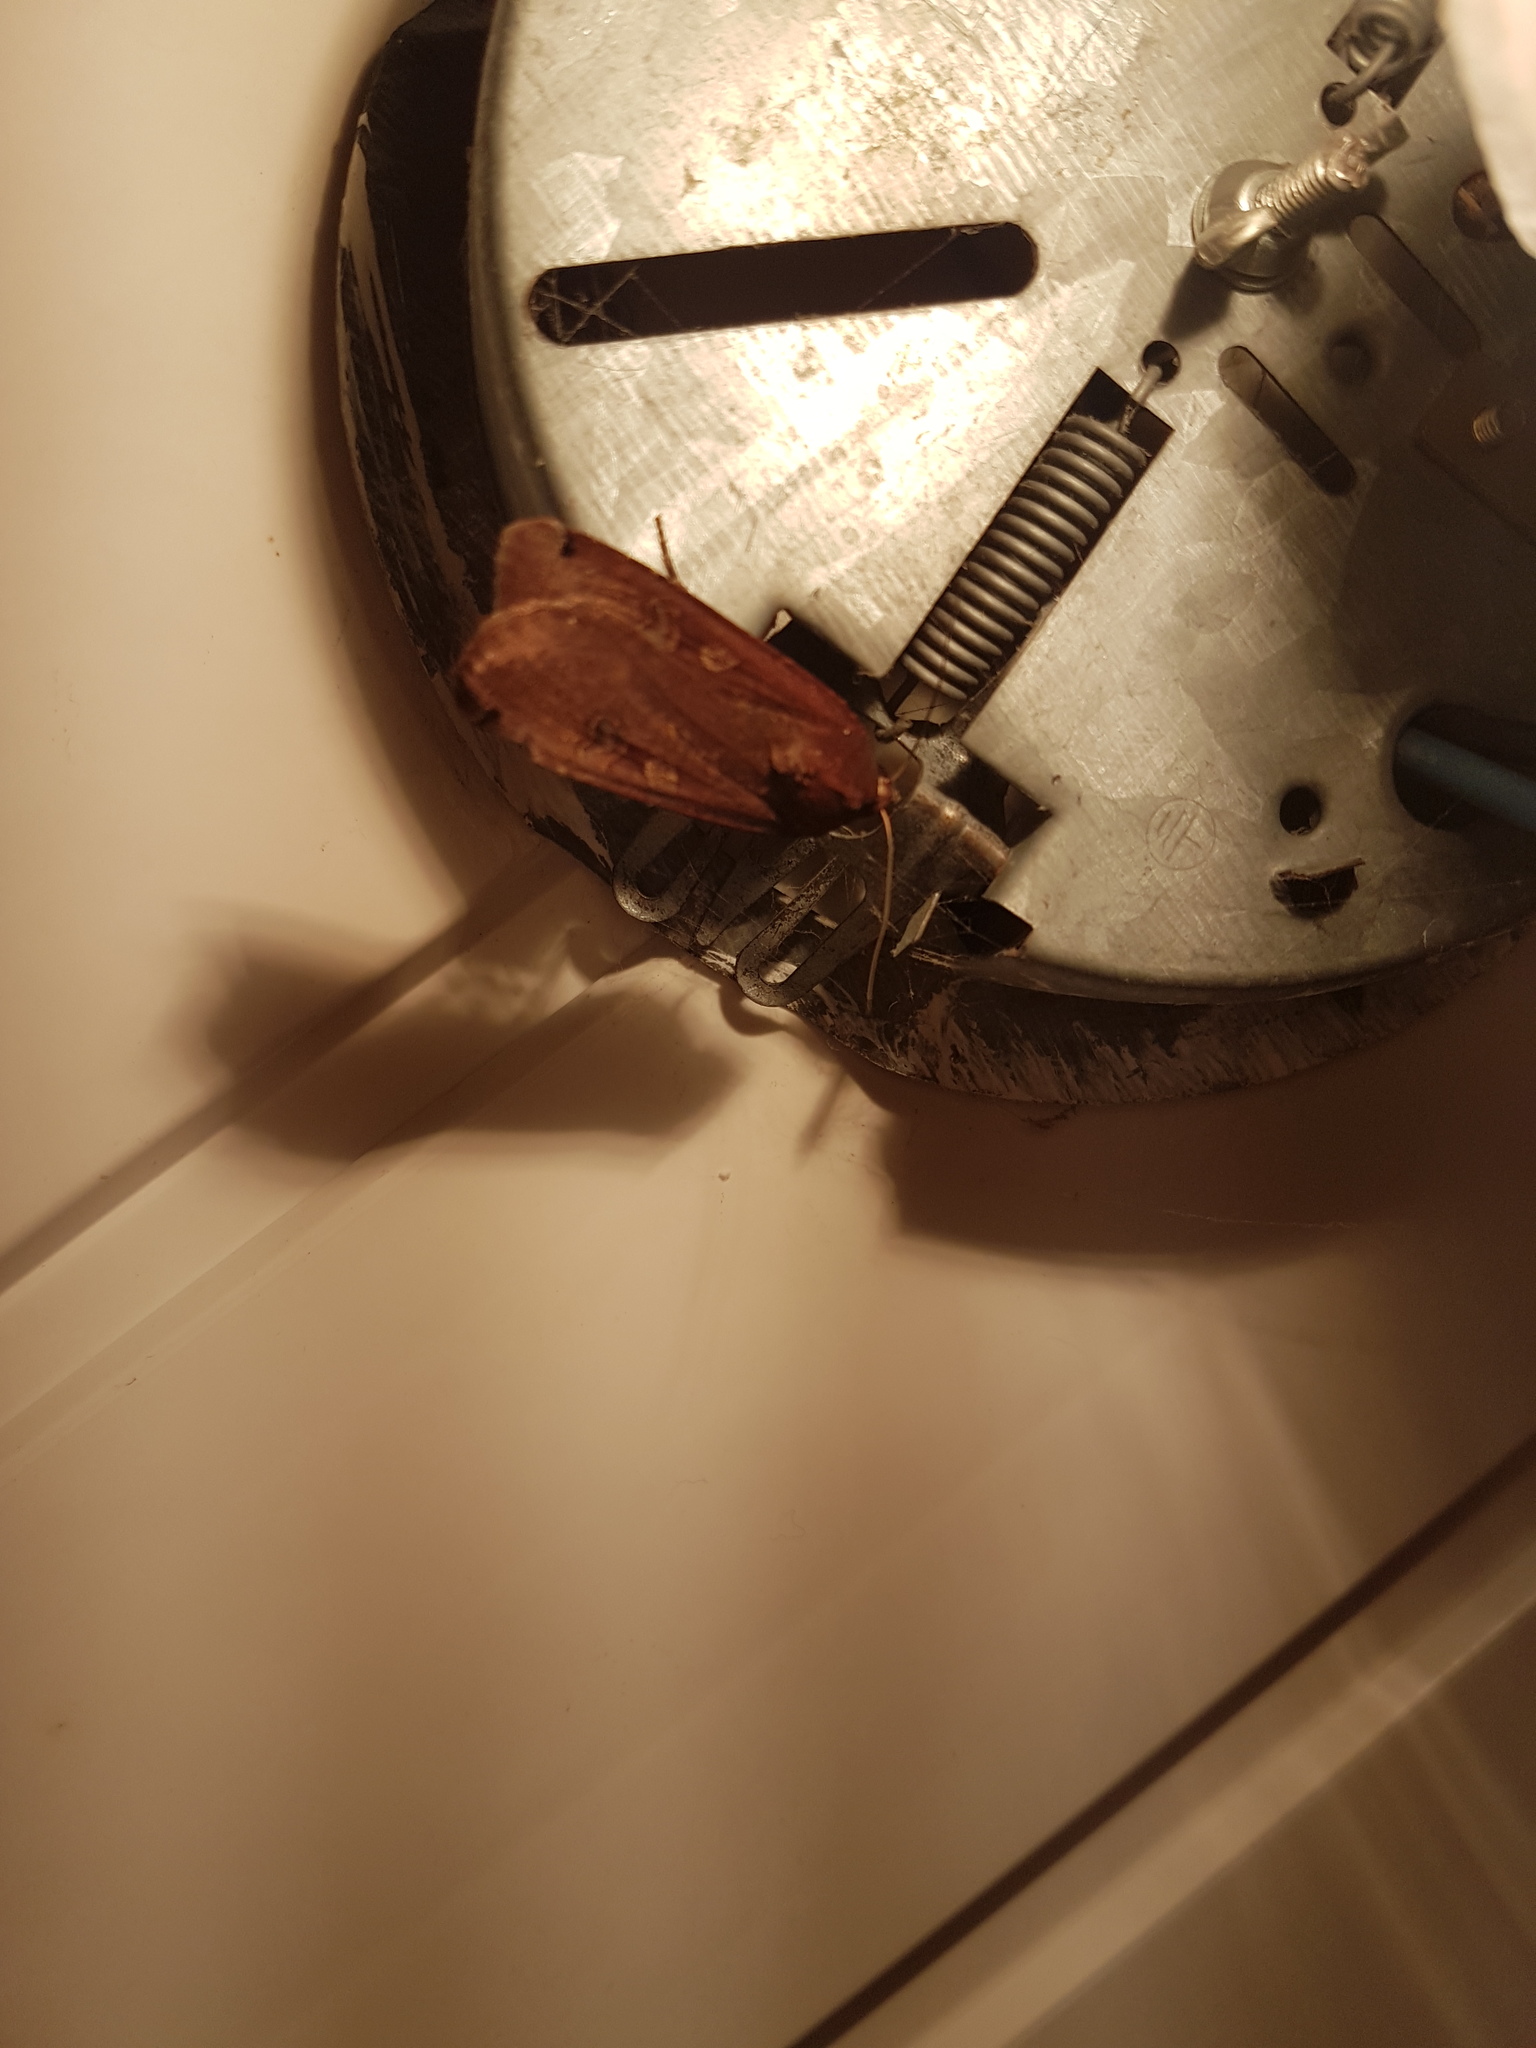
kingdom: Animalia
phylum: Arthropoda
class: Insecta
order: Lepidoptera
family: Noctuidae
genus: Noctua
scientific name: Noctua pronuba
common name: Large yellow underwing
